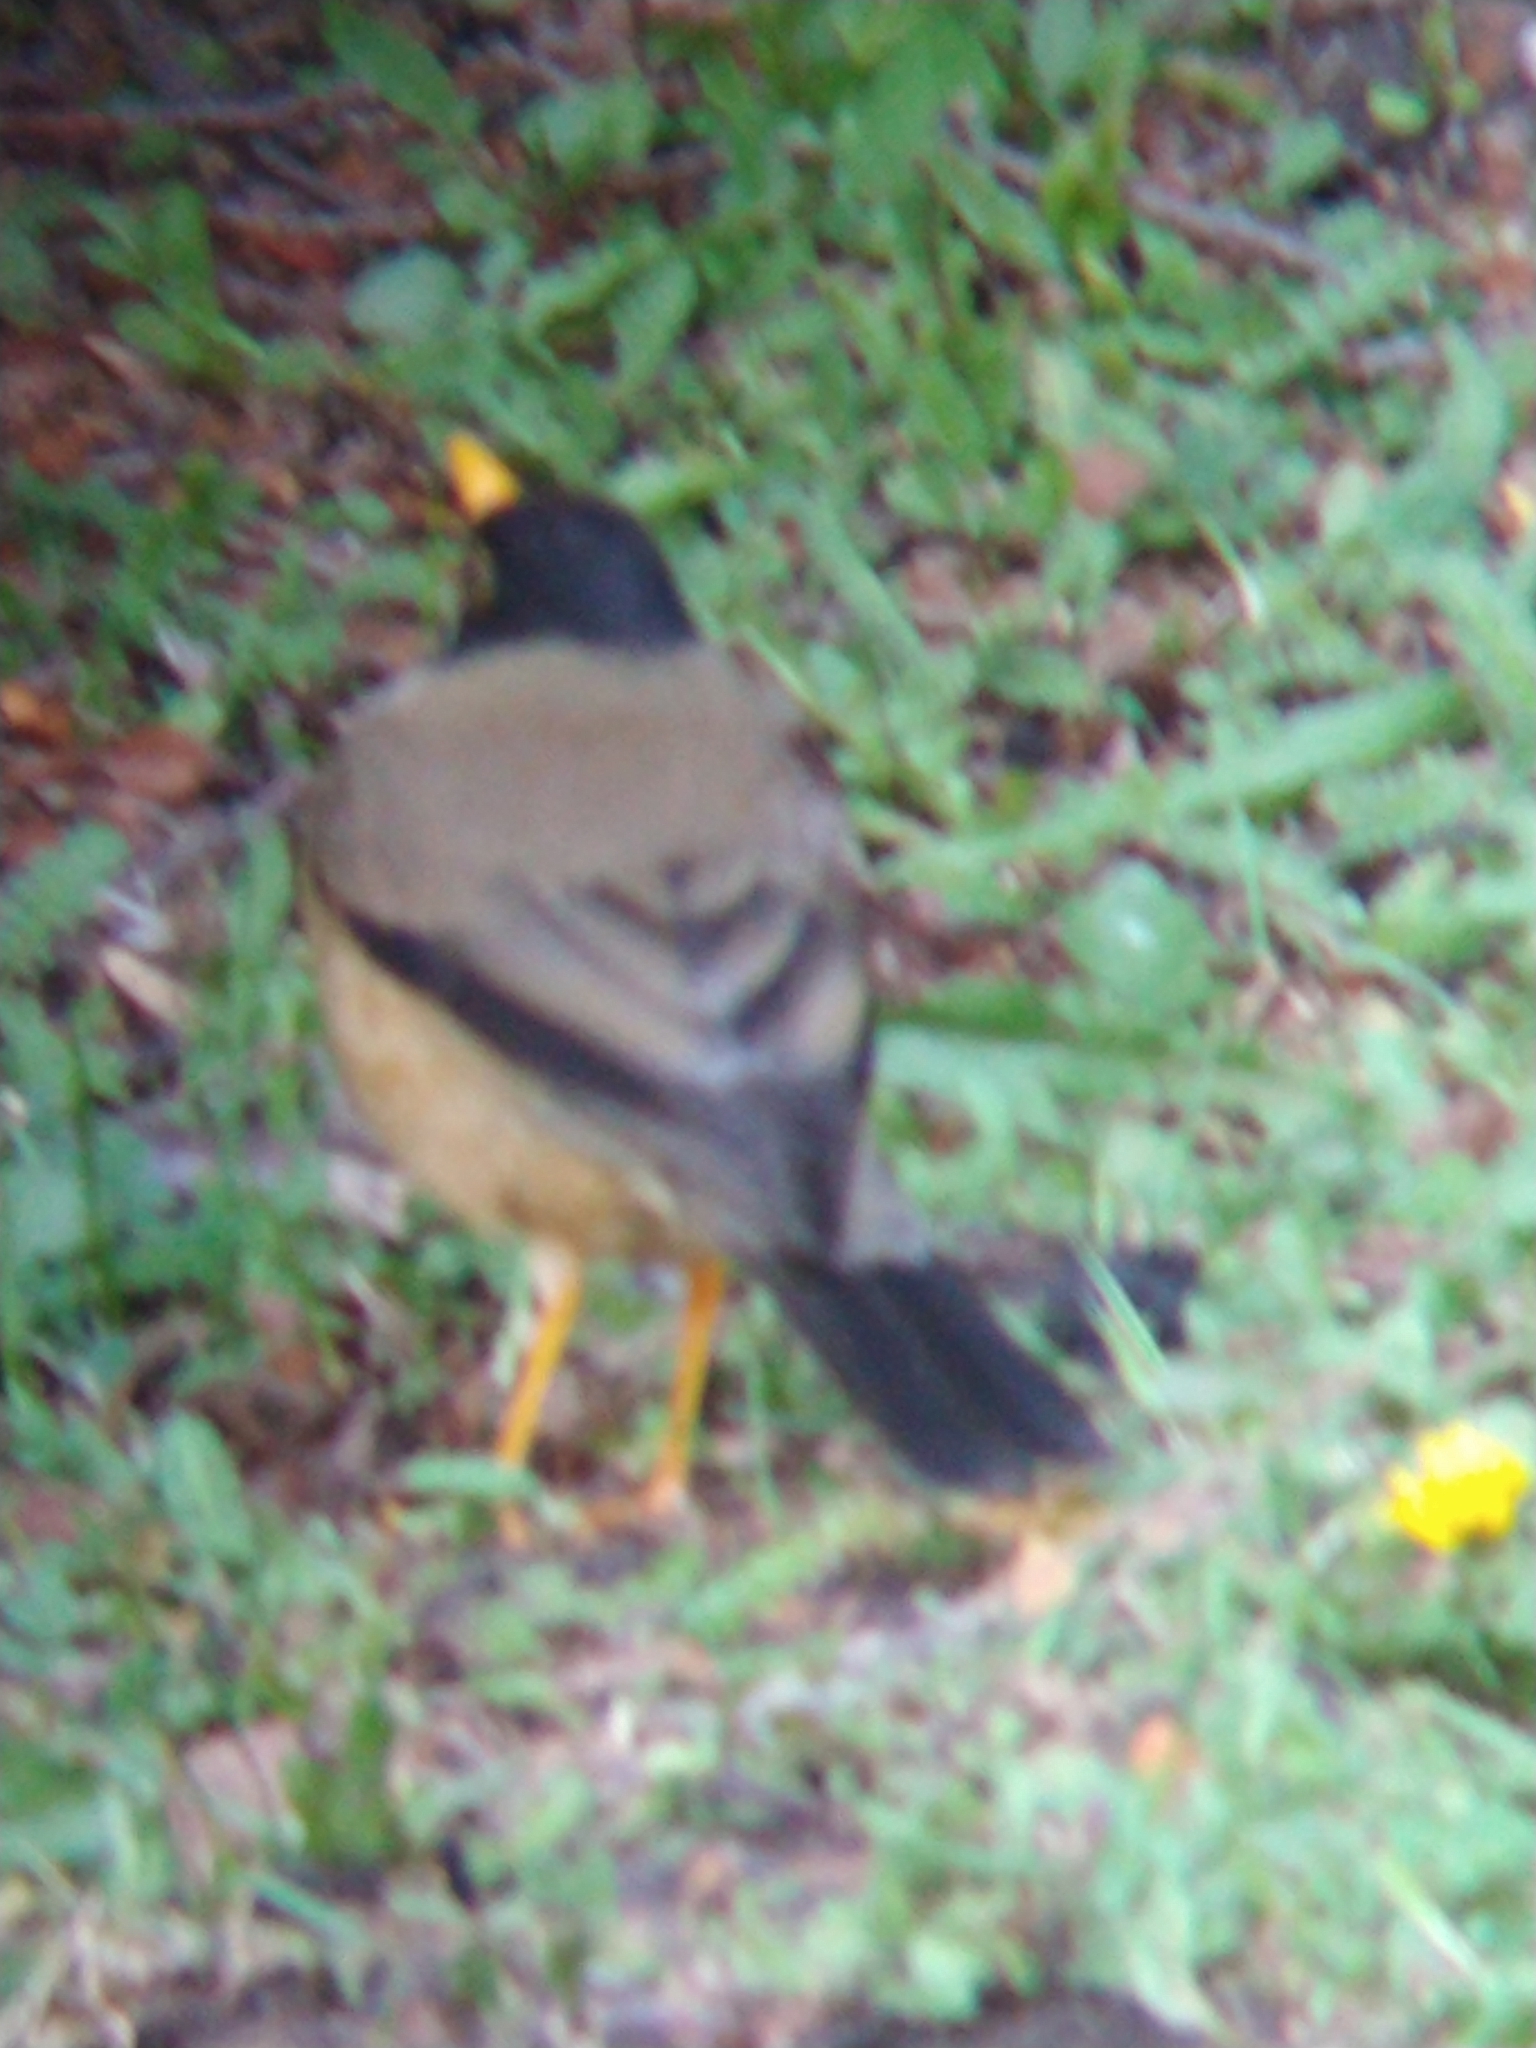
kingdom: Animalia
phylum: Chordata
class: Aves
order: Passeriformes
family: Turdidae
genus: Turdus
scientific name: Turdus falcklandii
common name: Austral thrush
